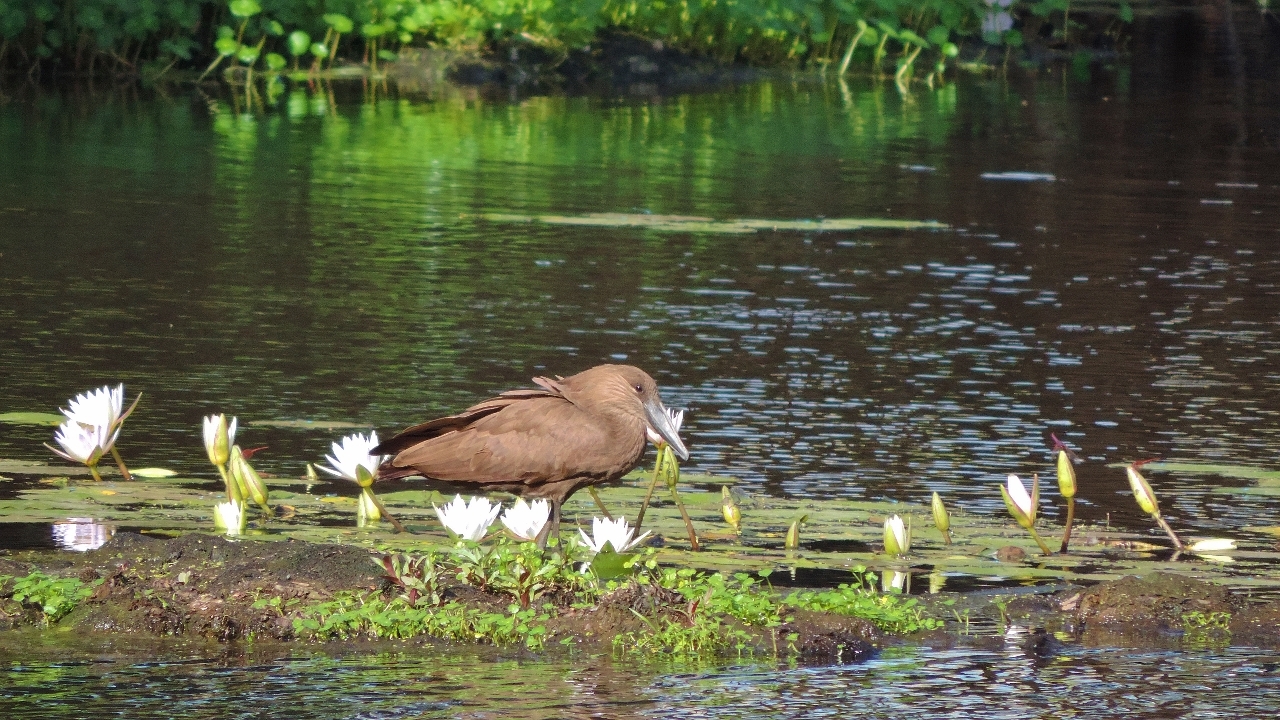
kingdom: Animalia
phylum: Chordata
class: Aves
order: Pelecaniformes
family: Scopidae
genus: Scopus
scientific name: Scopus umbretta
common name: Hamerkop
